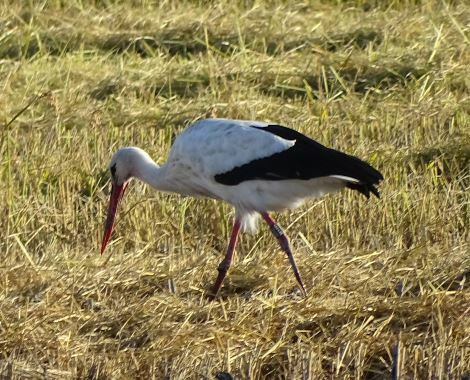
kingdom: Animalia
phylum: Chordata
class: Aves
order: Ciconiiformes
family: Ciconiidae
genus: Ciconia
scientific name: Ciconia ciconia
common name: White stork
